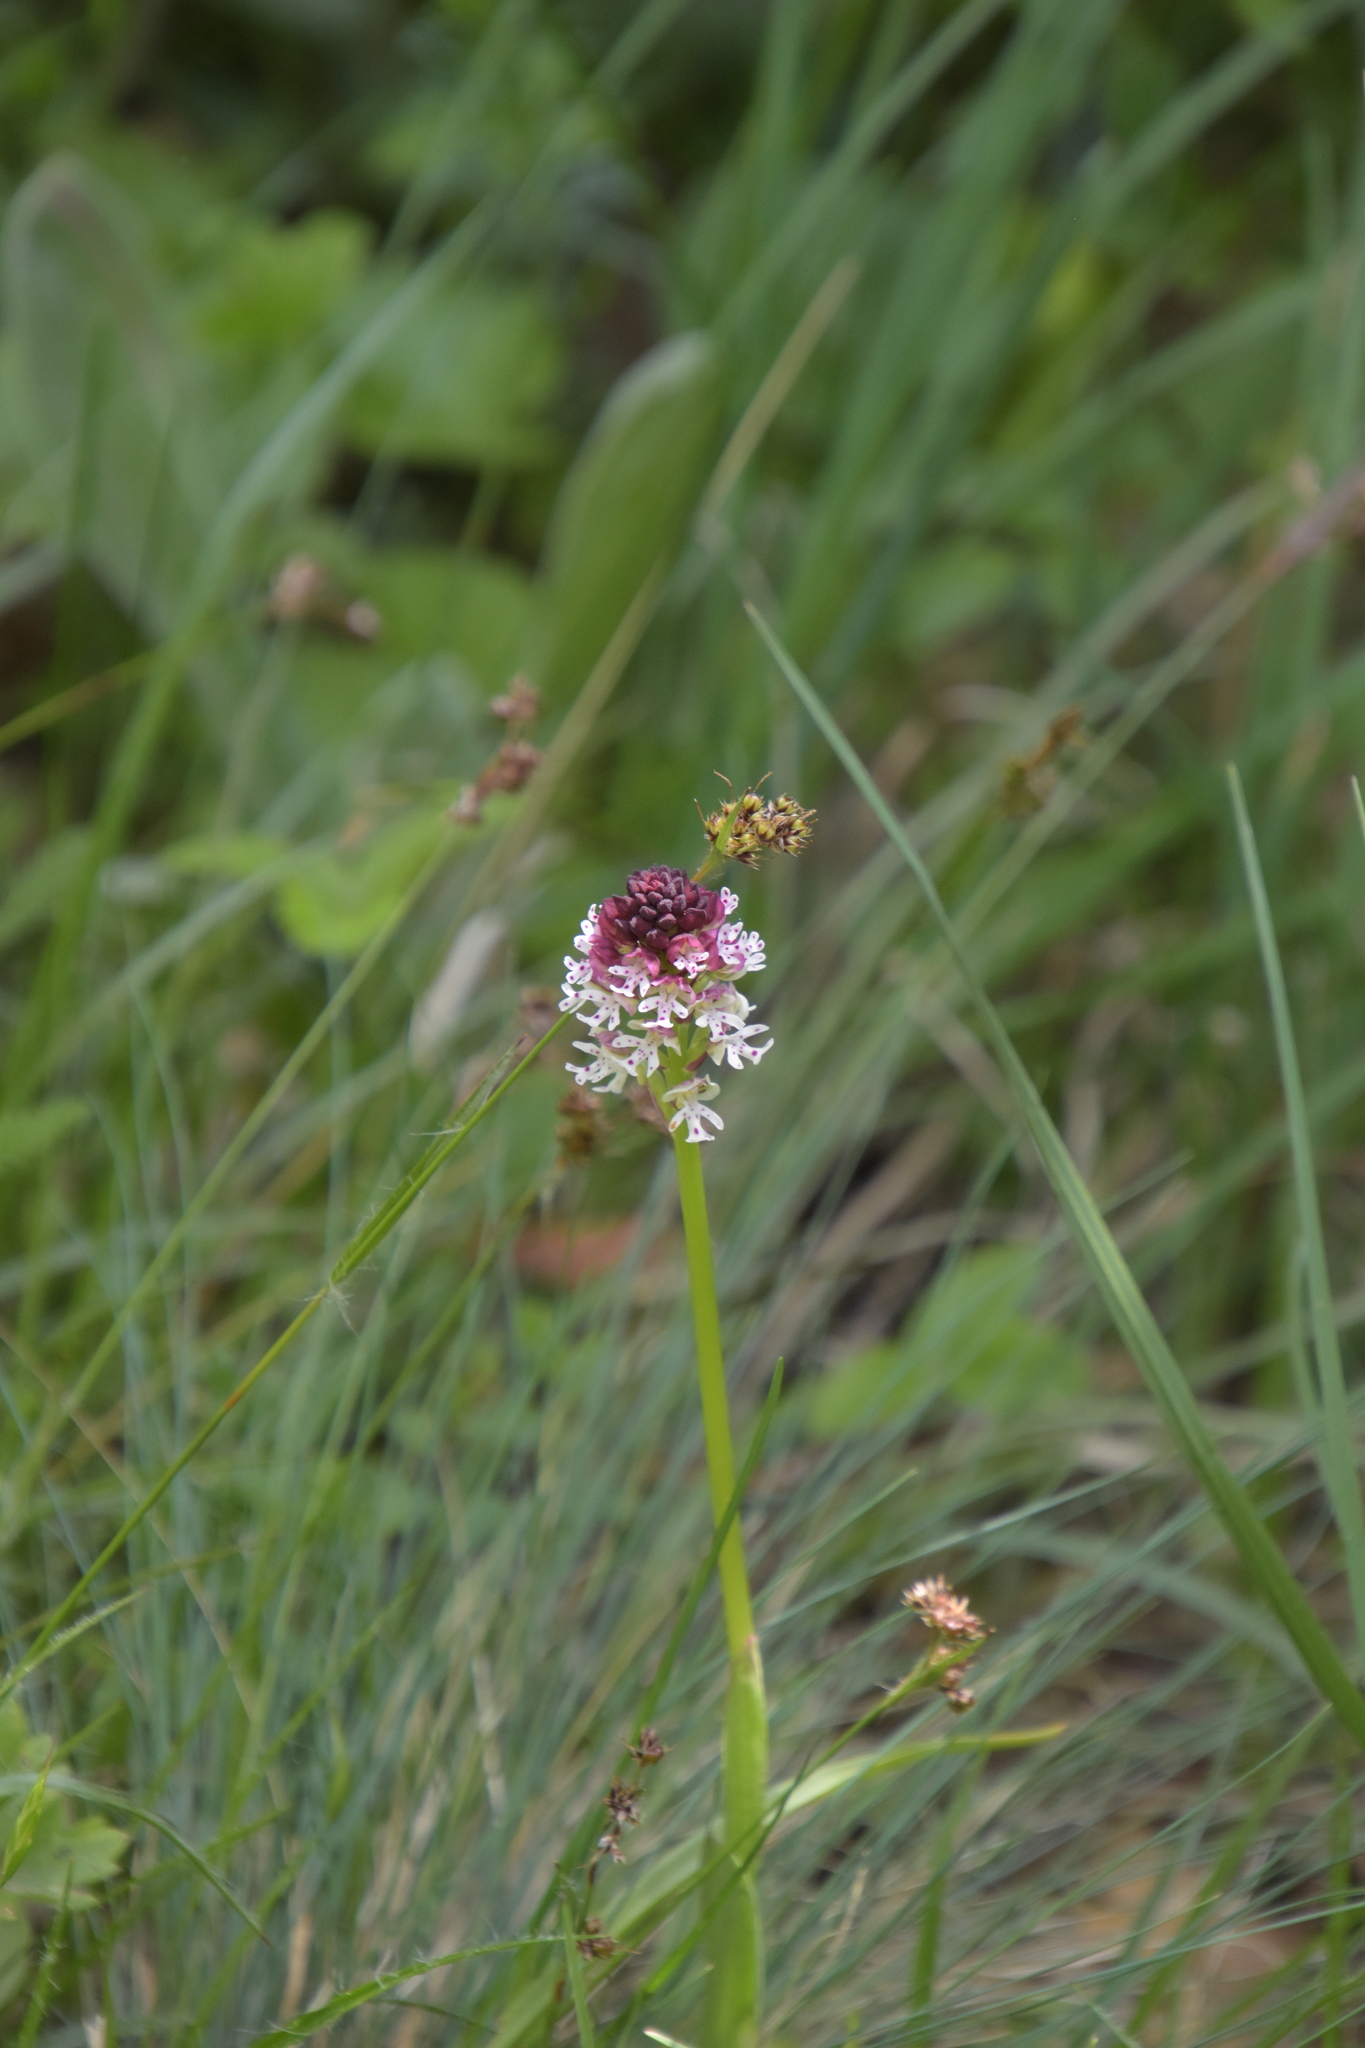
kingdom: Plantae
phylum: Tracheophyta
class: Liliopsida
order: Asparagales
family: Orchidaceae
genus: Neotinea
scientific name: Neotinea ustulata
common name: Burnt orchid
